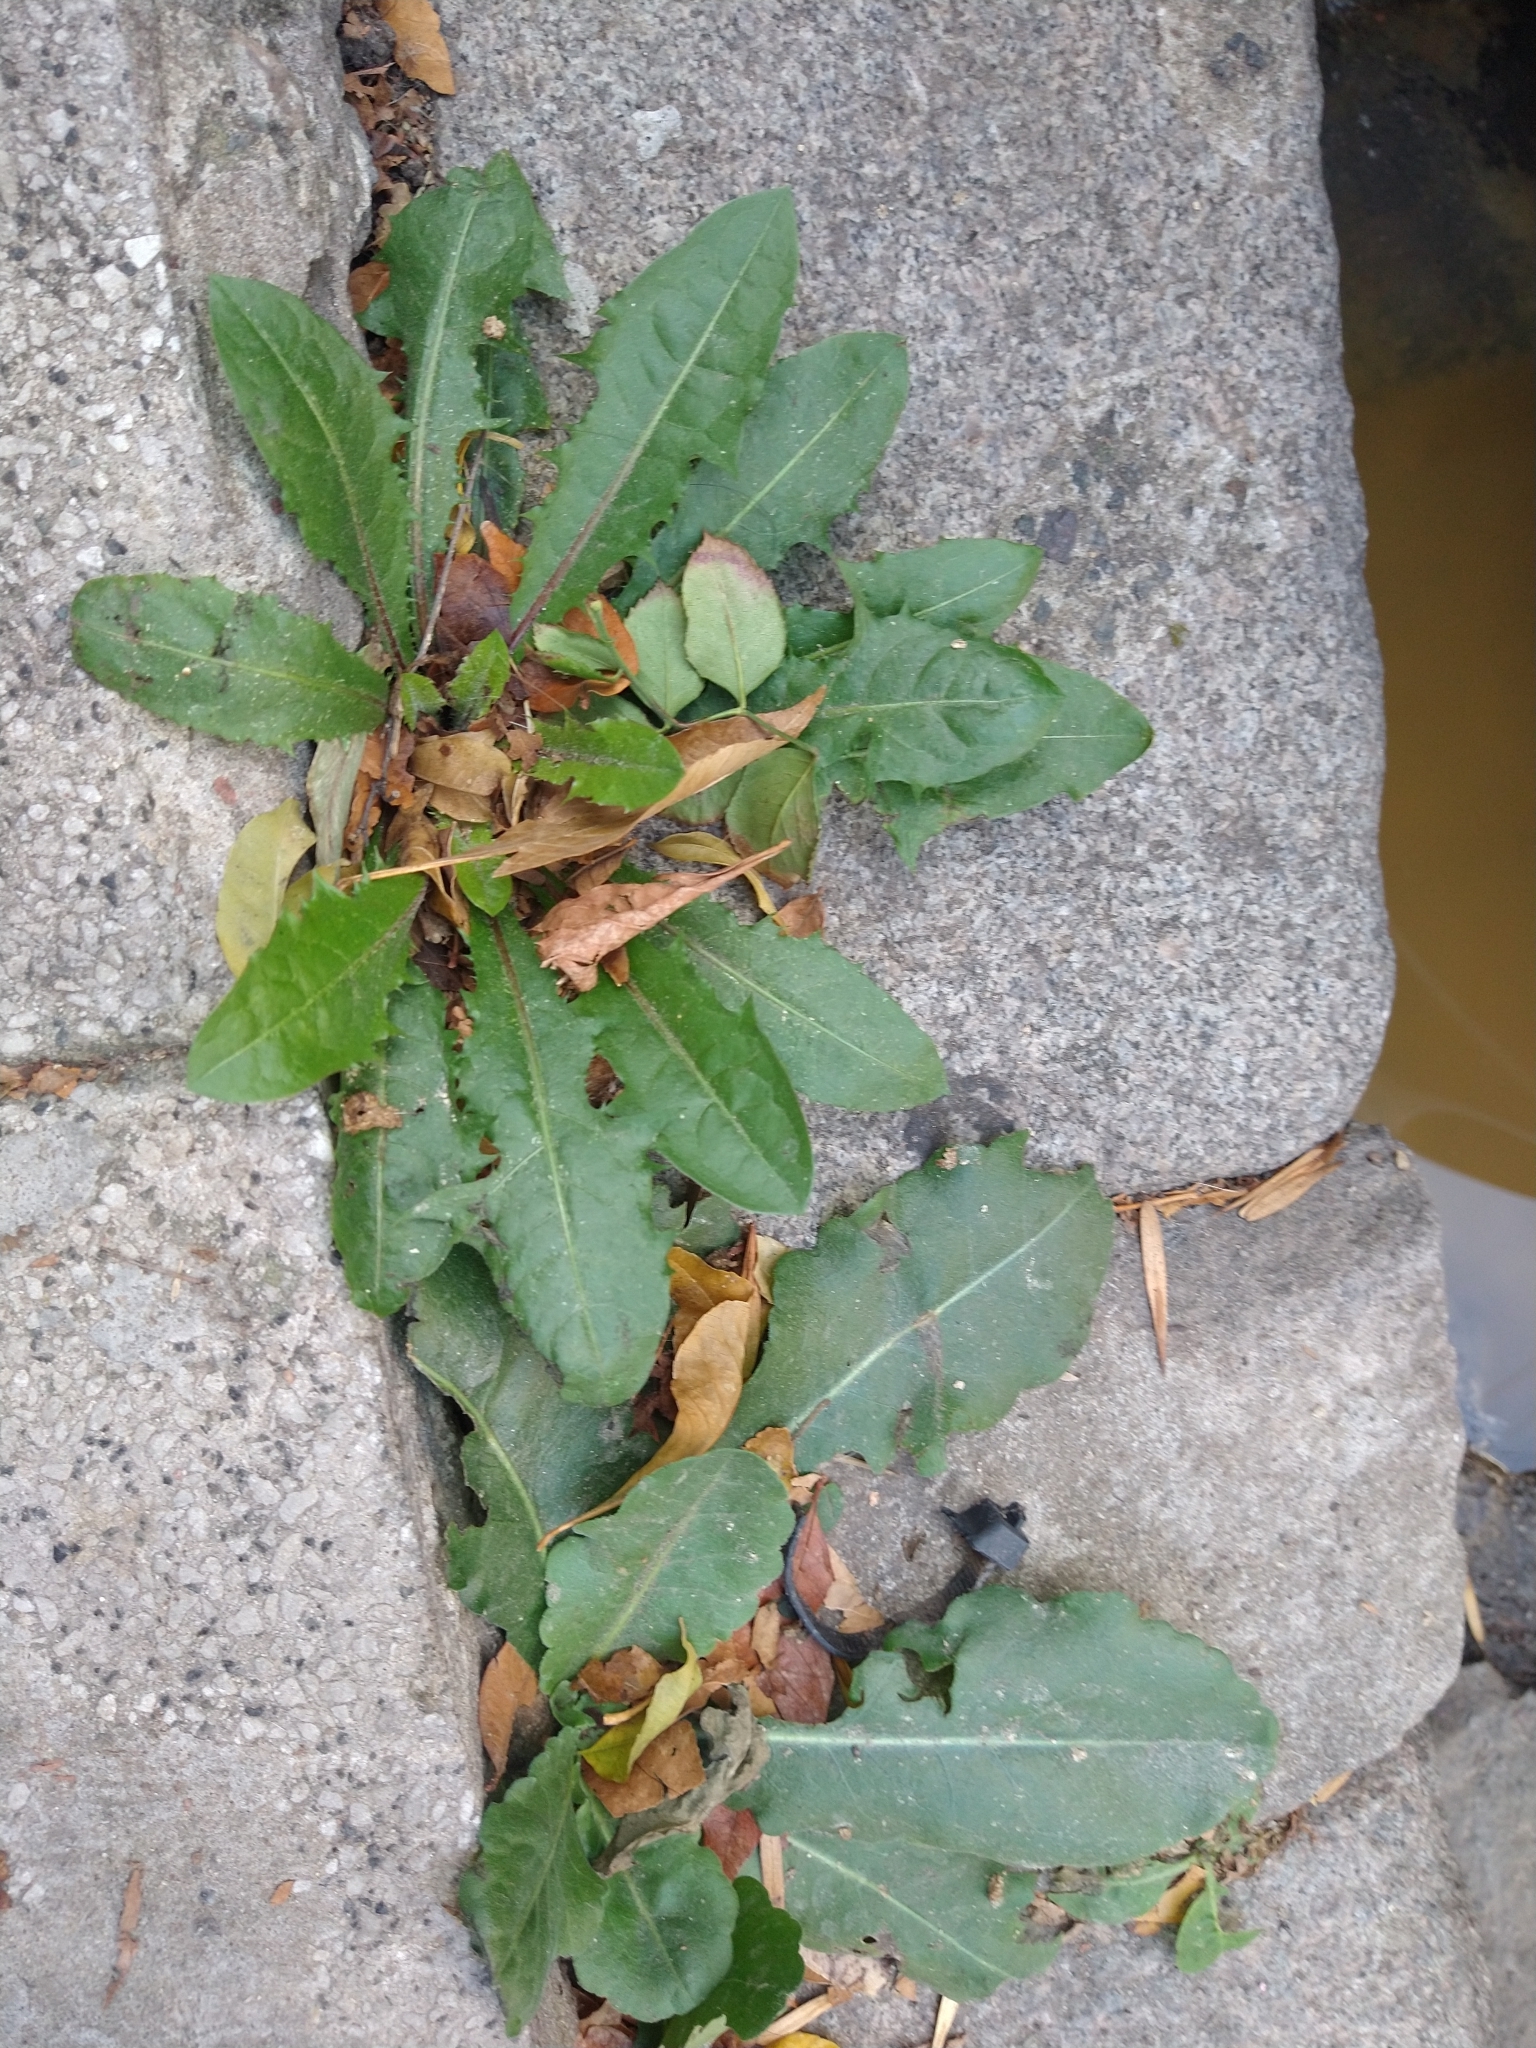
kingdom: Plantae
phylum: Tracheophyta
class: Magnoliopsida
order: Asterales
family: Asteraceae
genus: Taraxacum
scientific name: Taraxacum officinale
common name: Common dandelion
